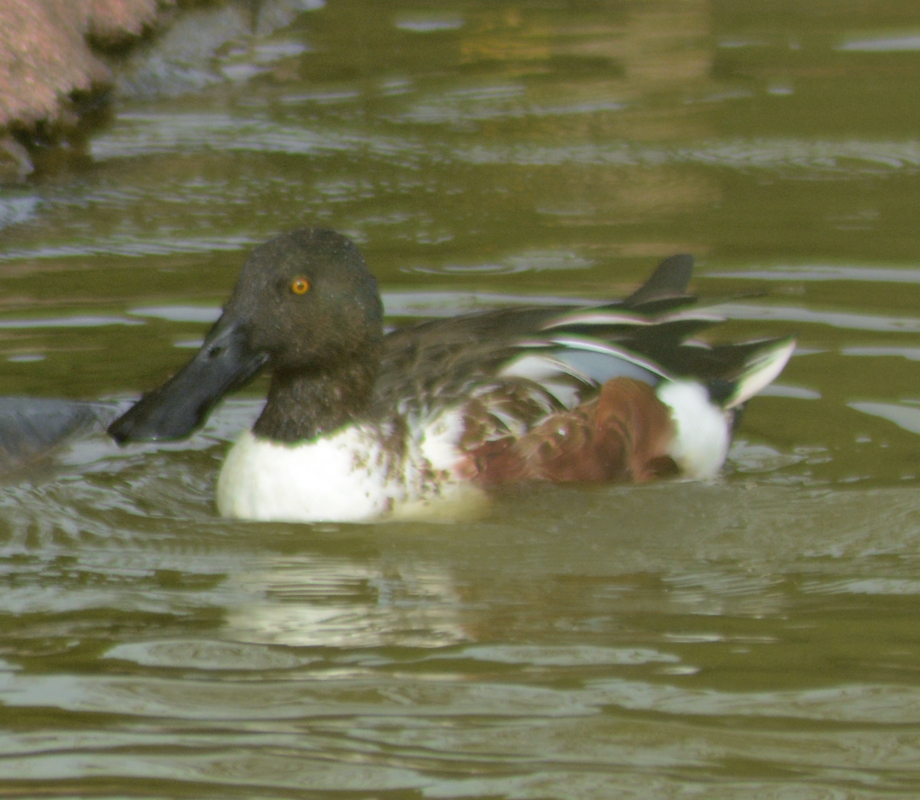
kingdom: Animalia
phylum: Chordata
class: Aves
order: Anseriformes
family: Anatidae
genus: Spatula
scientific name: Spatula clypeata
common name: Northern shoveler
